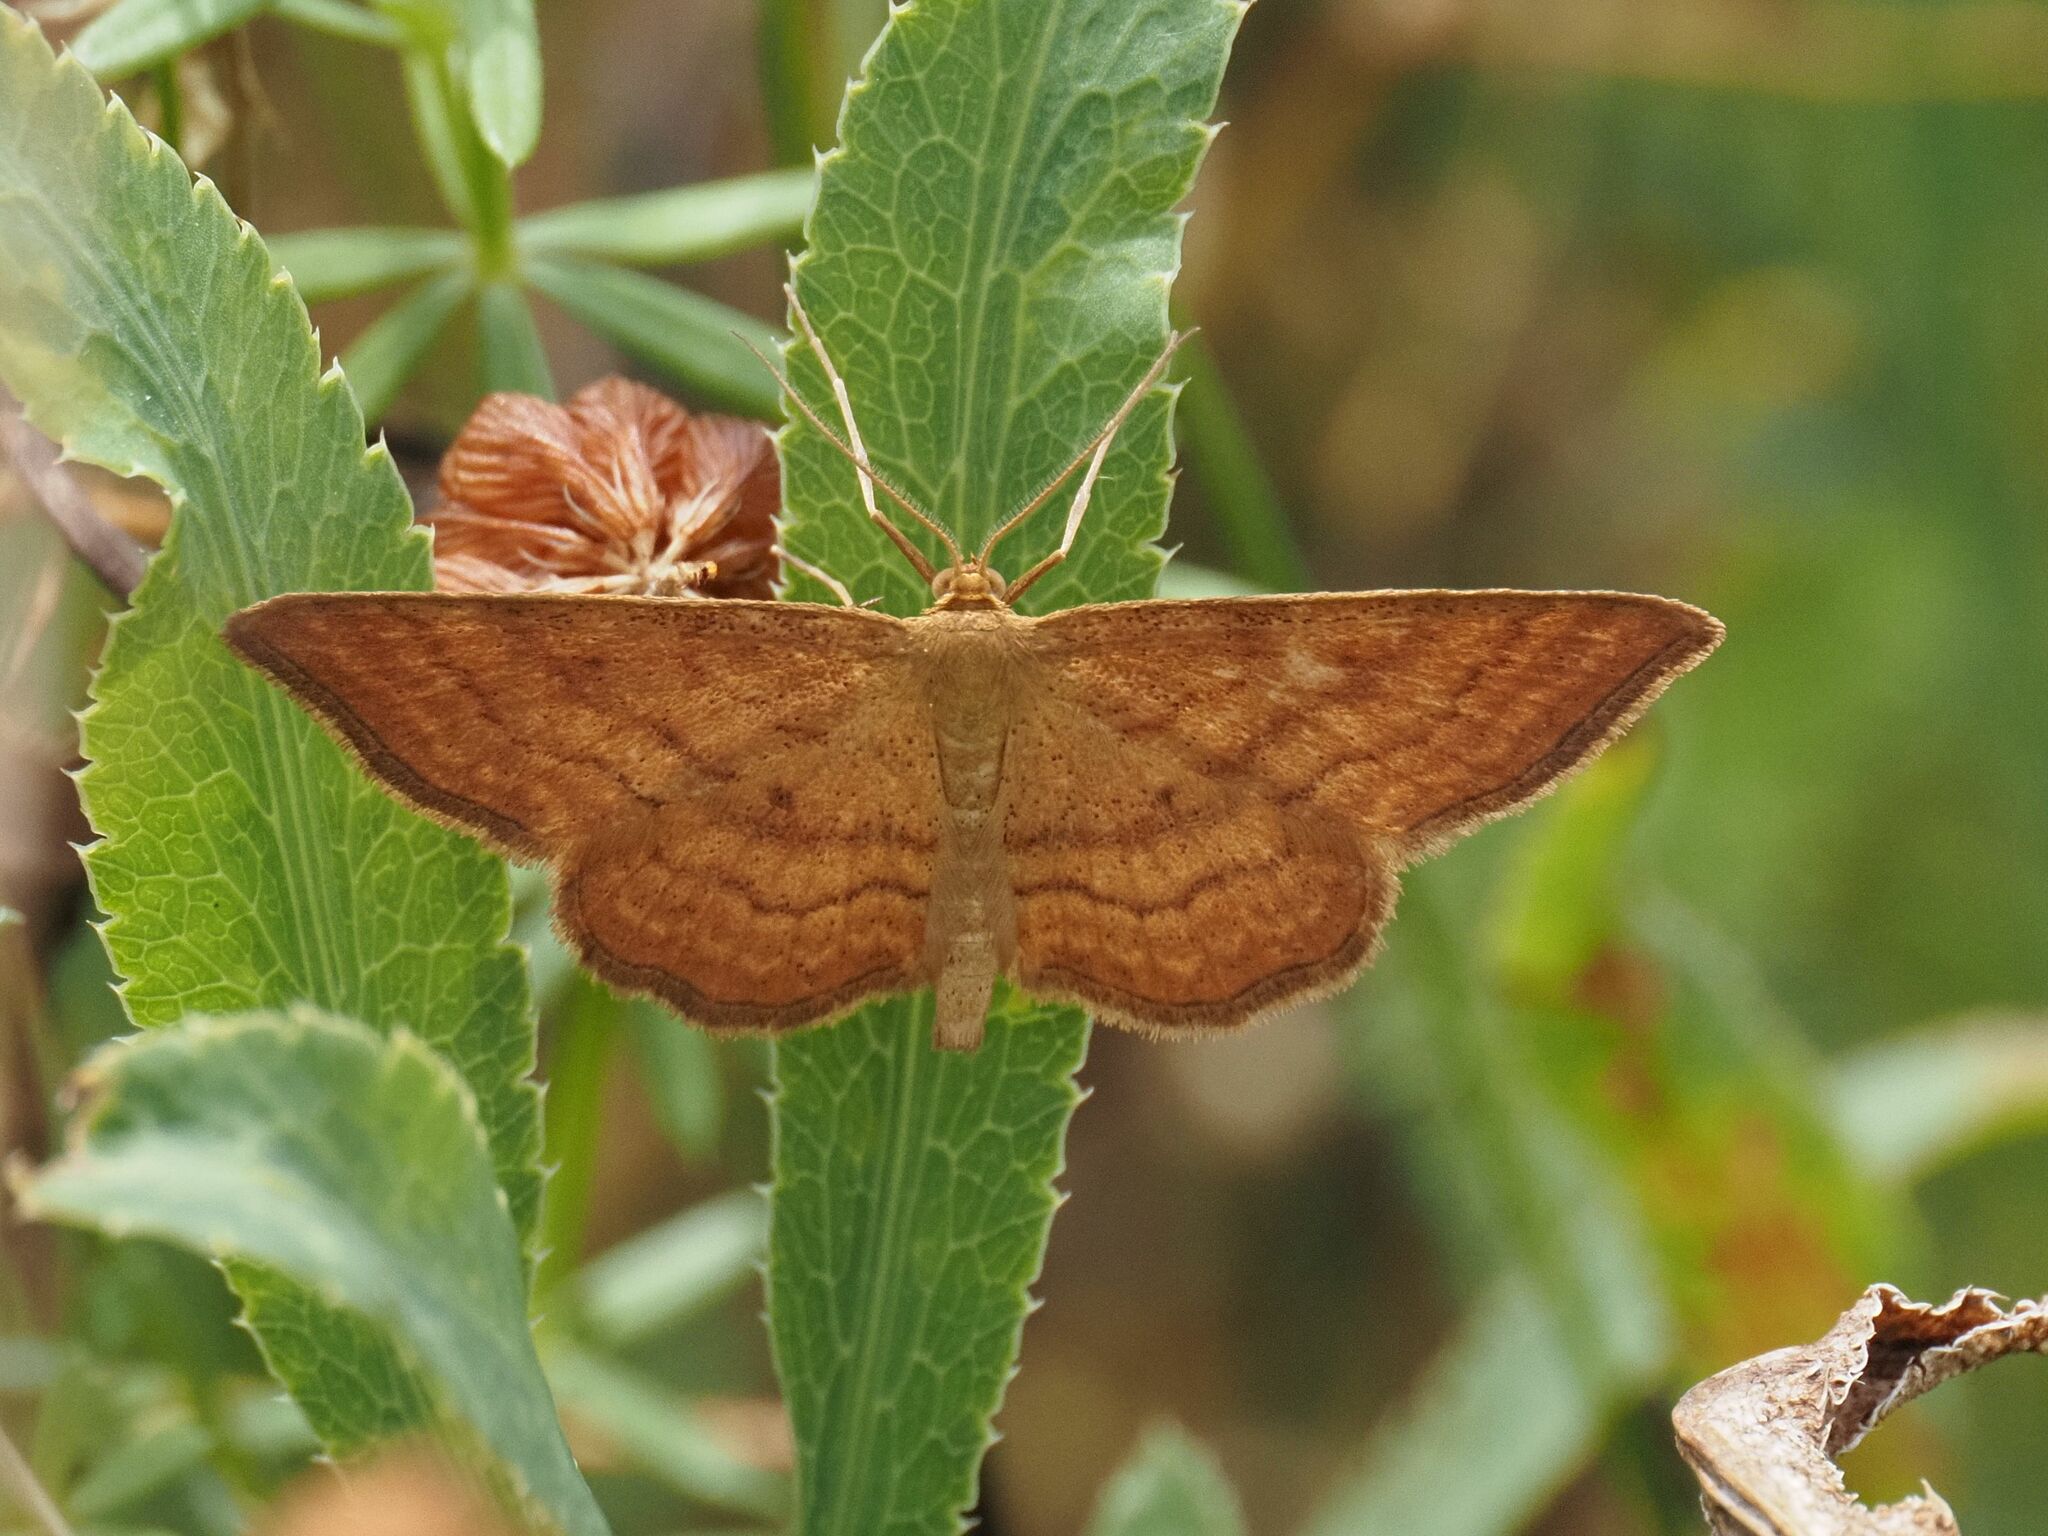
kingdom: Animalia
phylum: Arthropoda
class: Insecta
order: Lepidoptera
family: Geometridae
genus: Idaea
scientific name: Idaea ochrata
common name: Bright wave
